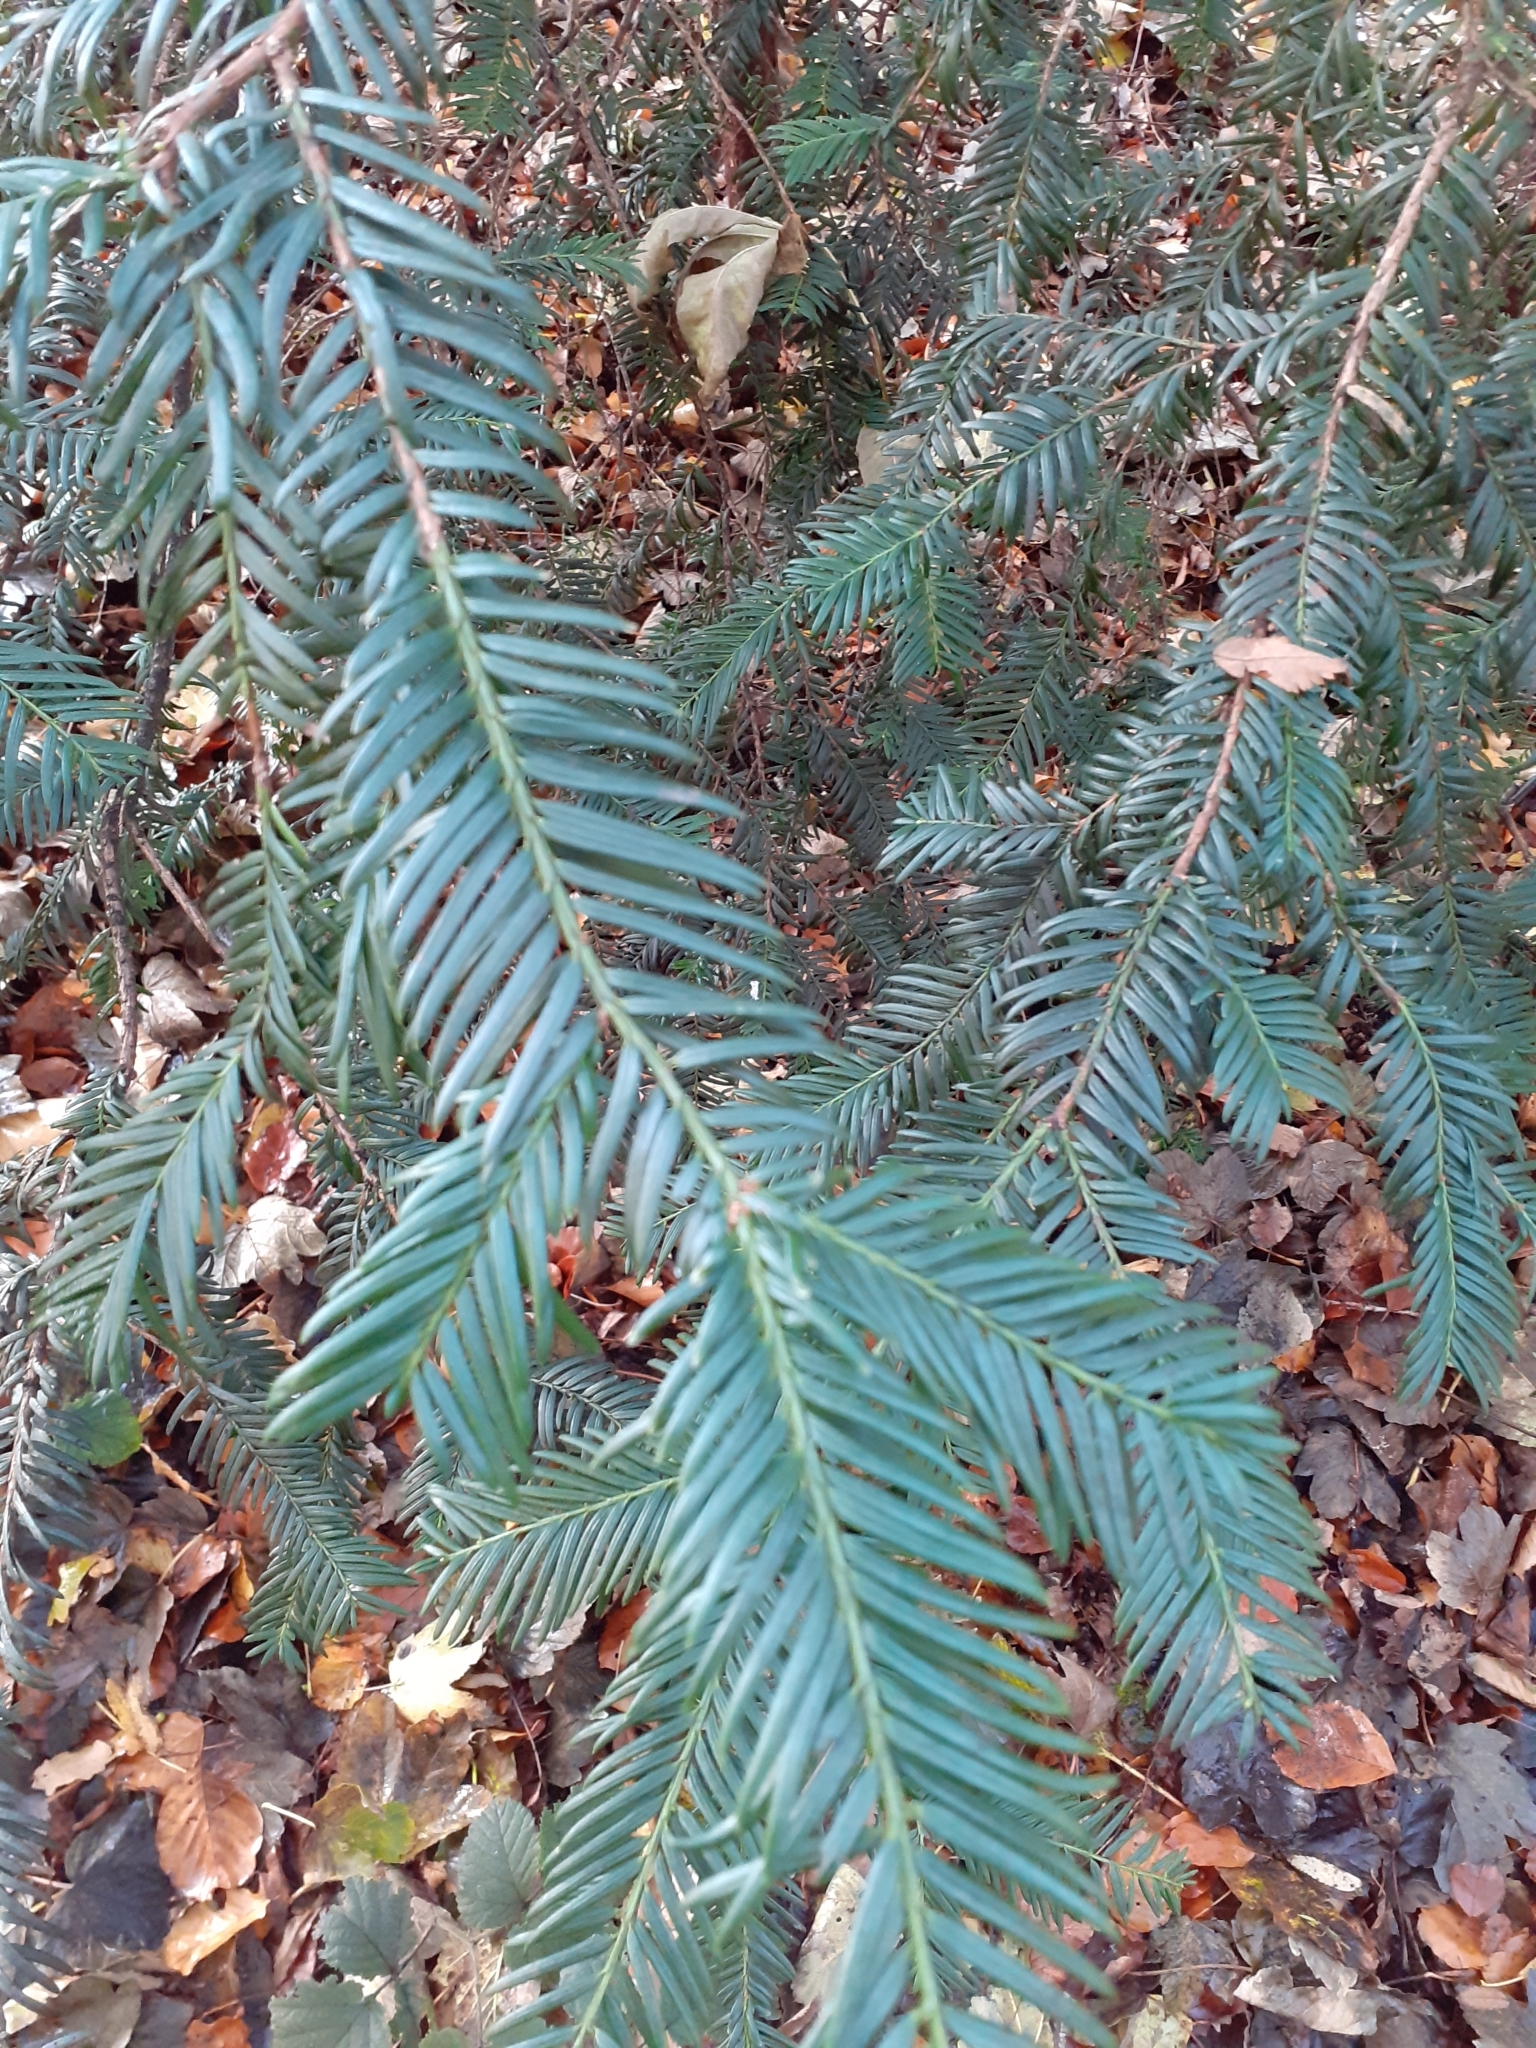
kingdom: Plantae
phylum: Tracheophyta
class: Pinopsida
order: Pinales
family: Taxaceae
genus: Taxus
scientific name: Taxus baccata
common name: Yew
